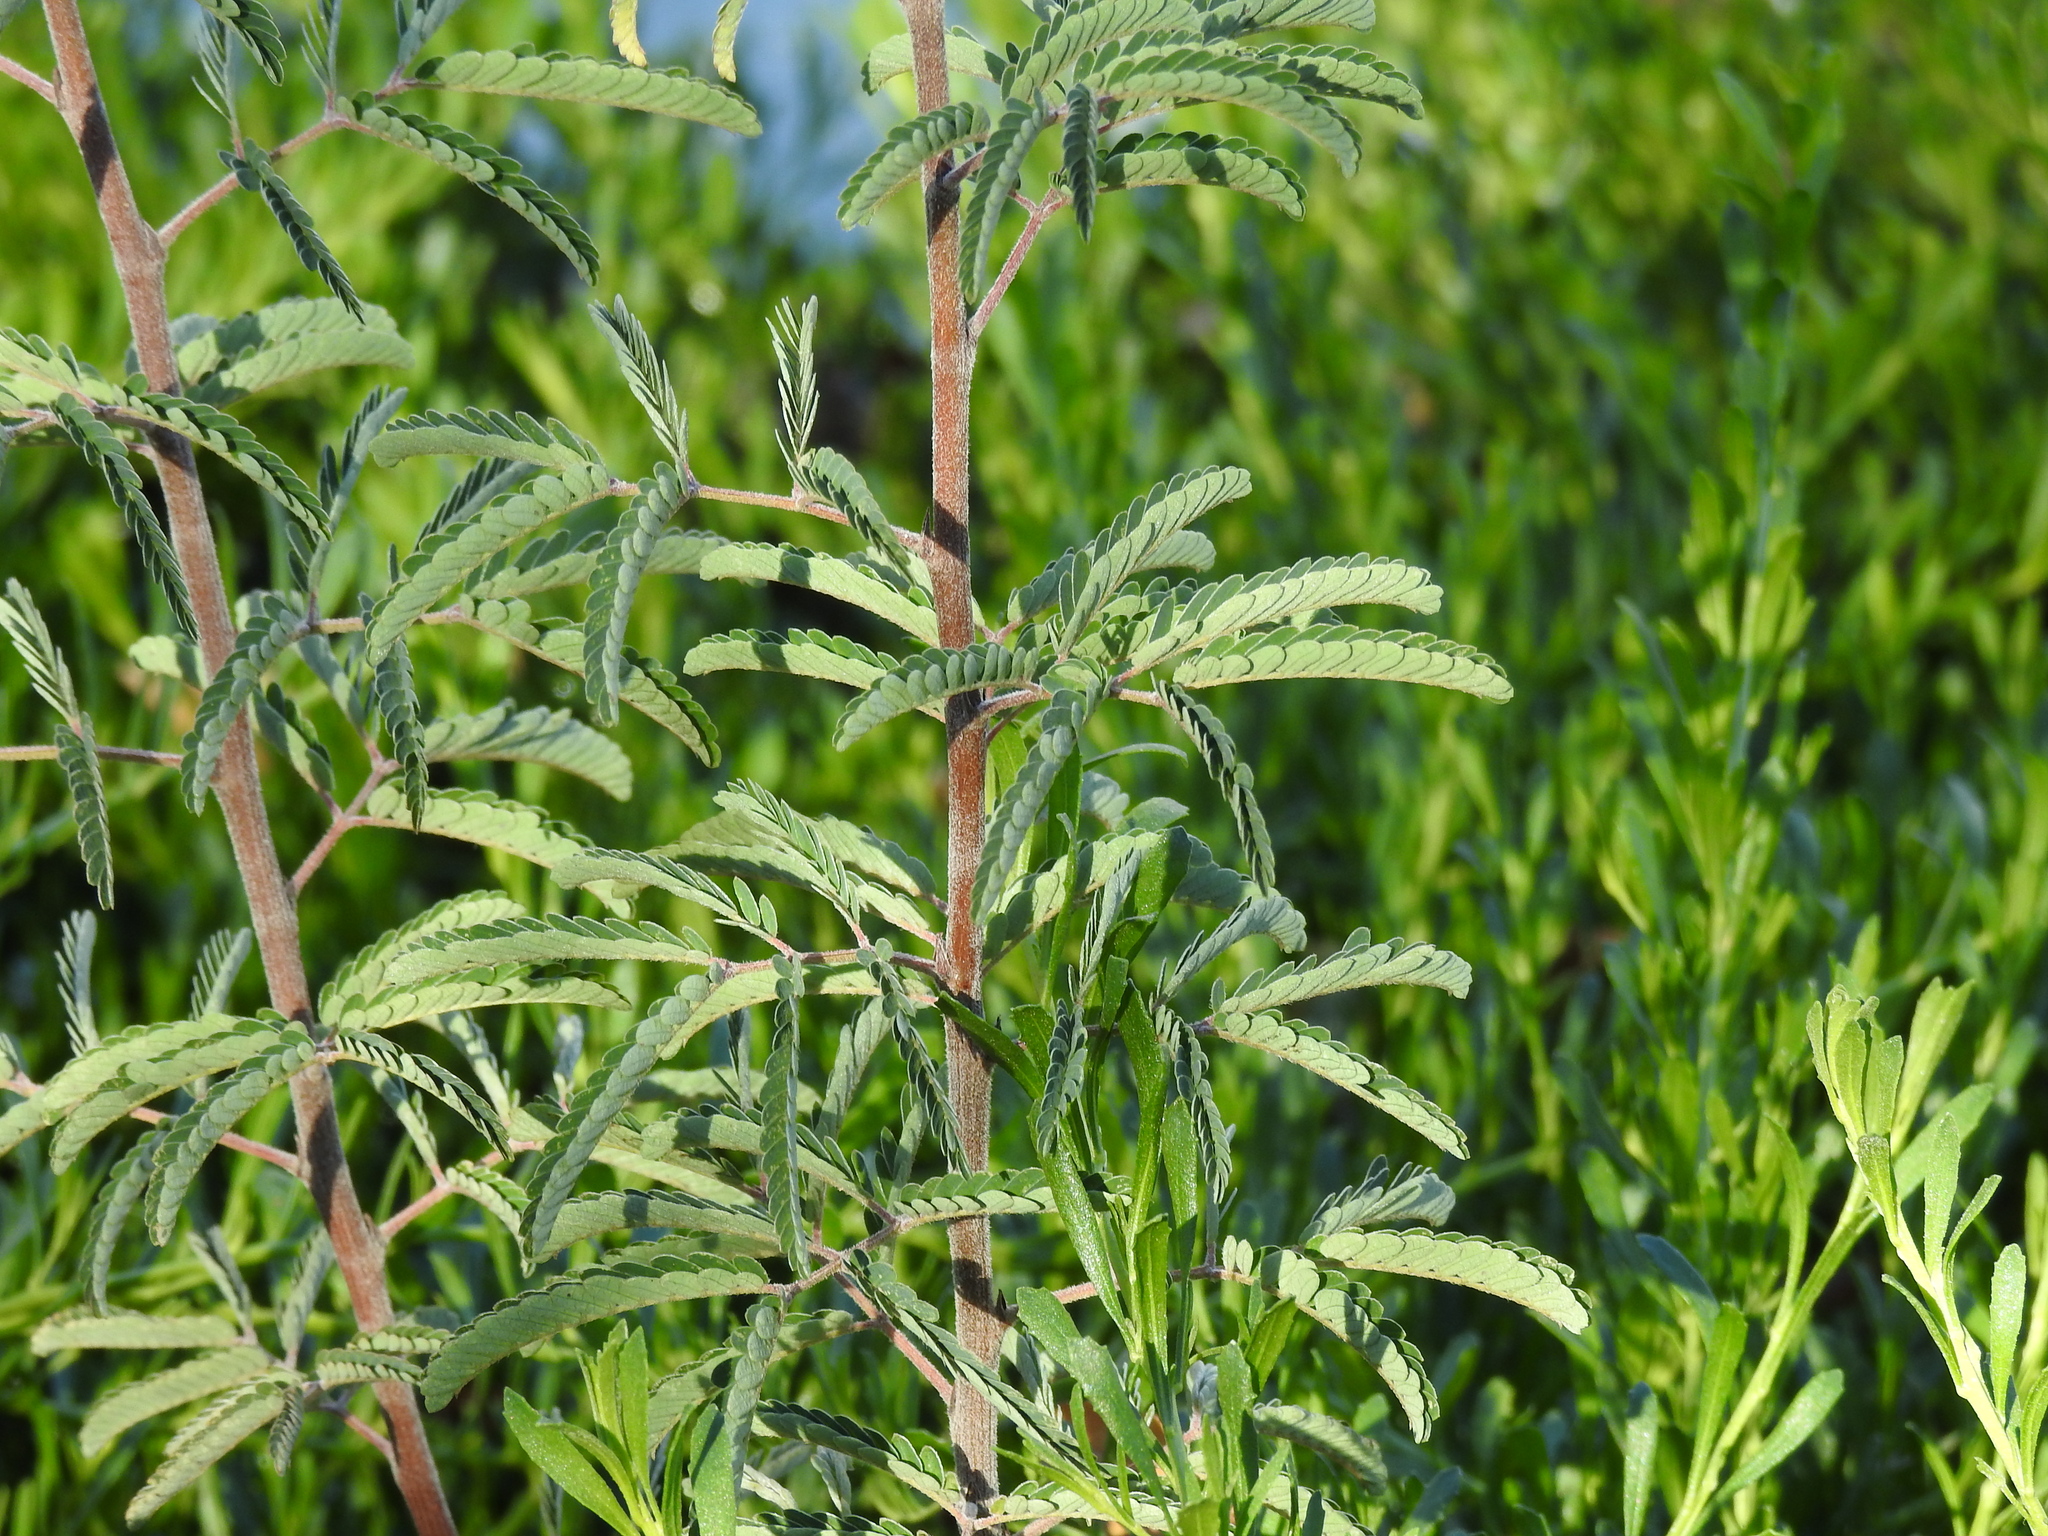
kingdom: Plantae
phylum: Tracheophyta
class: Magnoliopsida
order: Fabales
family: Fabaceae
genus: Calliandra
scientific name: Calliandra californica
